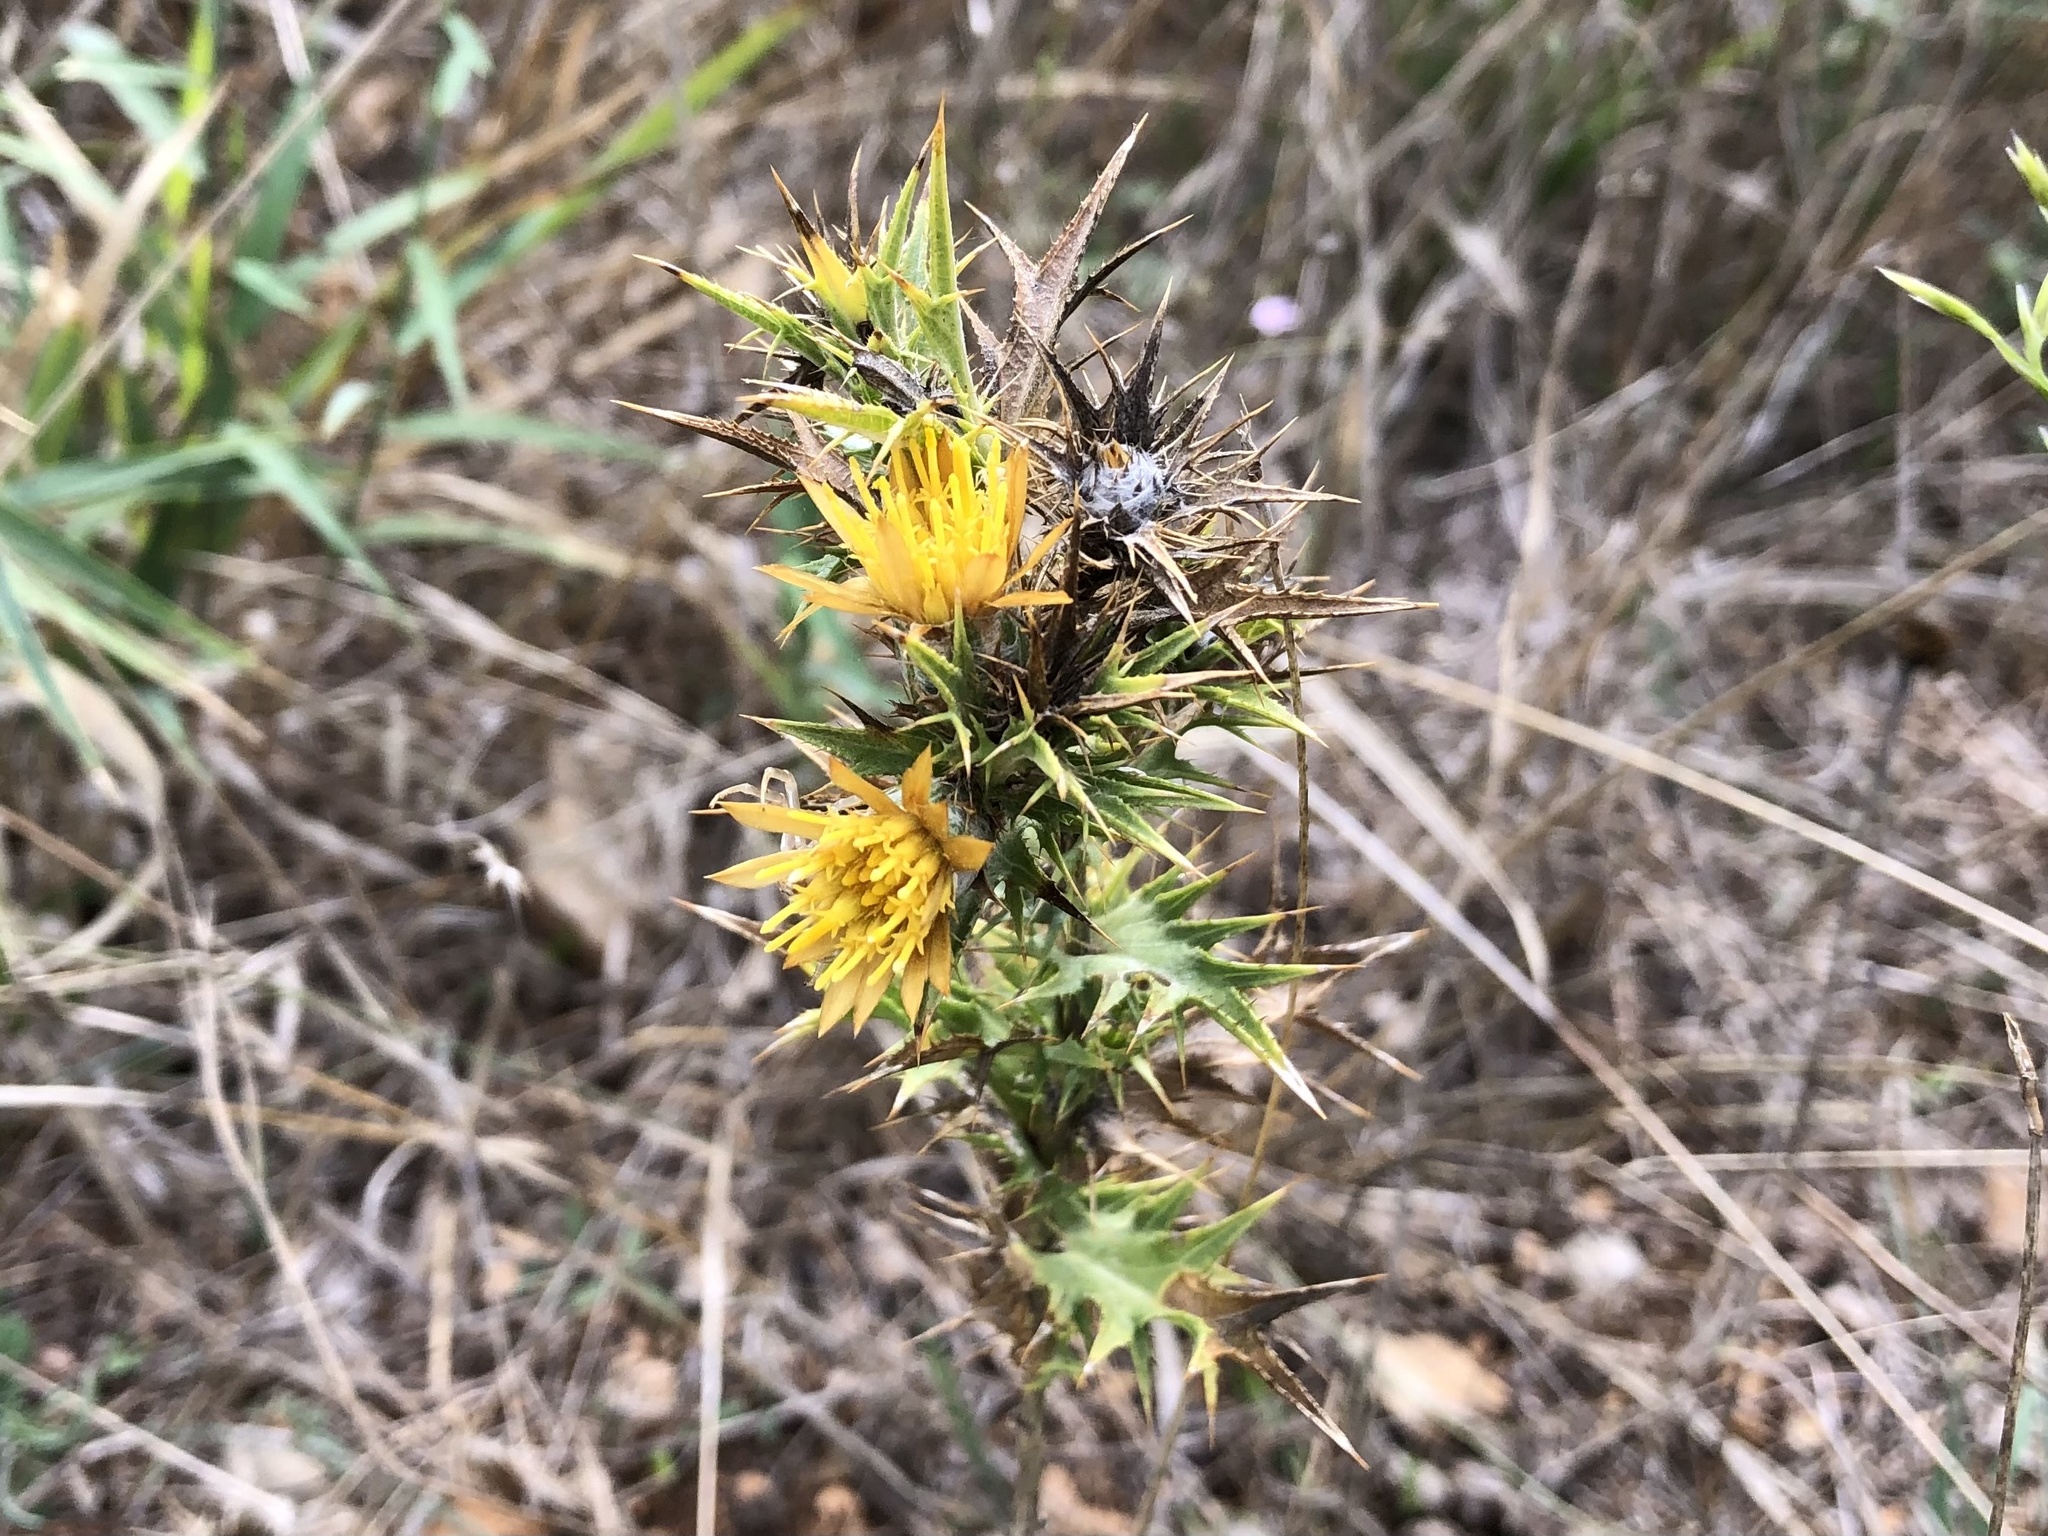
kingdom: Plantae
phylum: Tracheophyta
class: Magnoliopsida
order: Asterales
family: Asteraceae
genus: Scolymus
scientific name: Scolymus hispanicus
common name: Golden thistle
